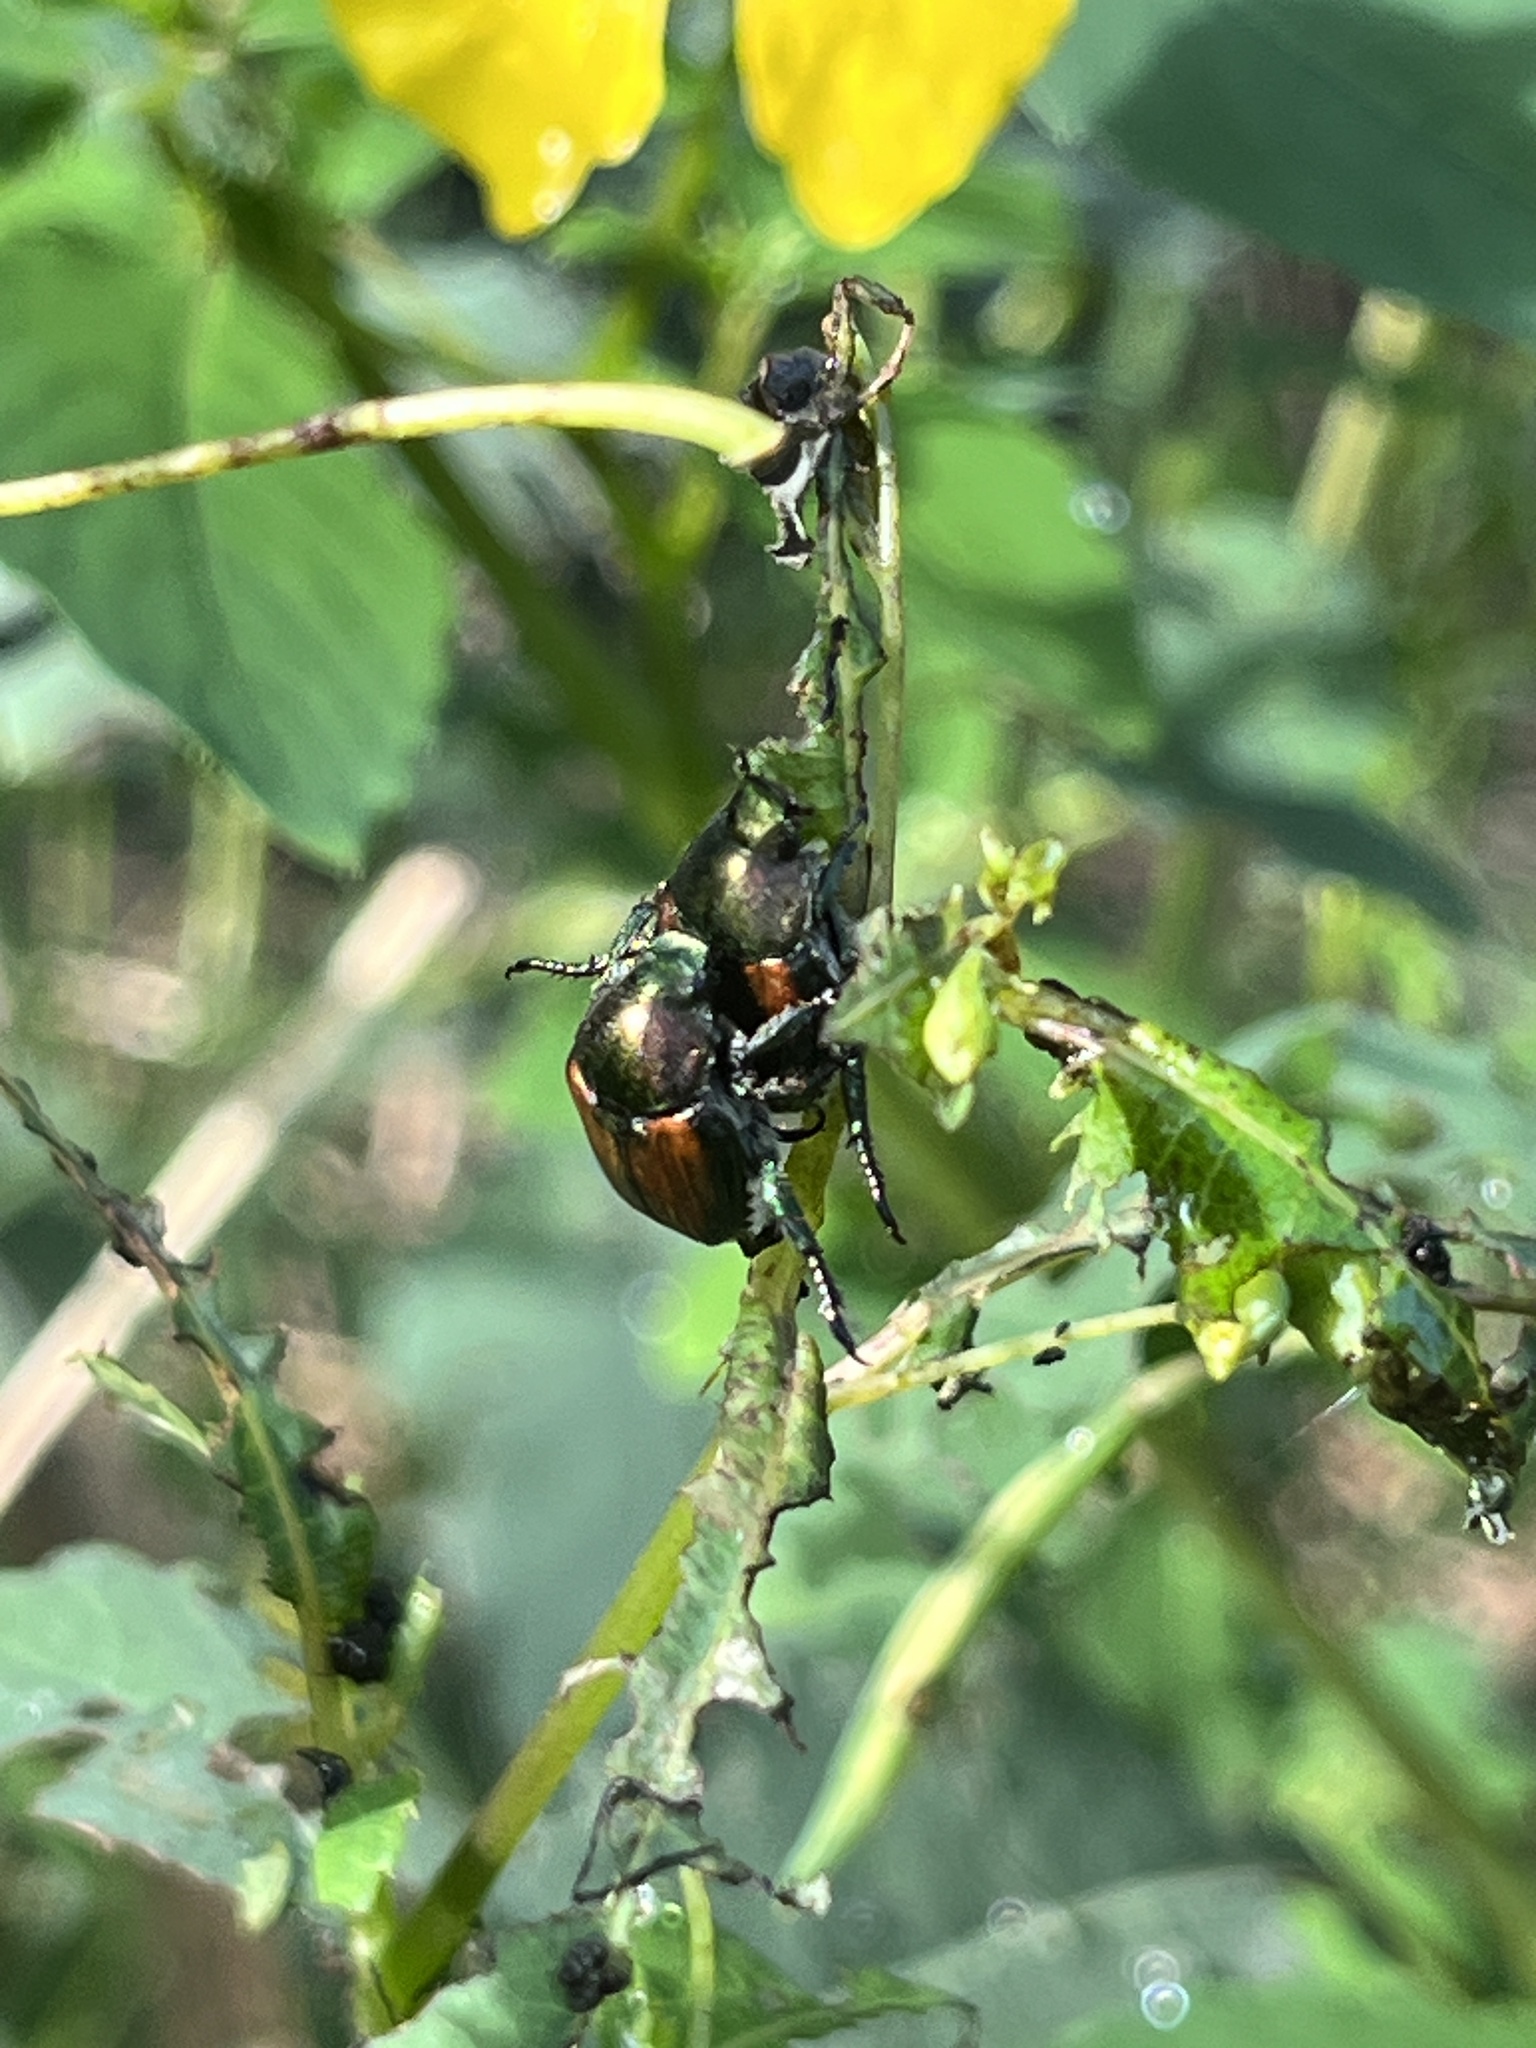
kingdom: Animalia
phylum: Arthropoda
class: Insecta
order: Coleoptera
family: Scarabaeidae
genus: Popillia
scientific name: Popillia japonica
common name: Japanese beetle
